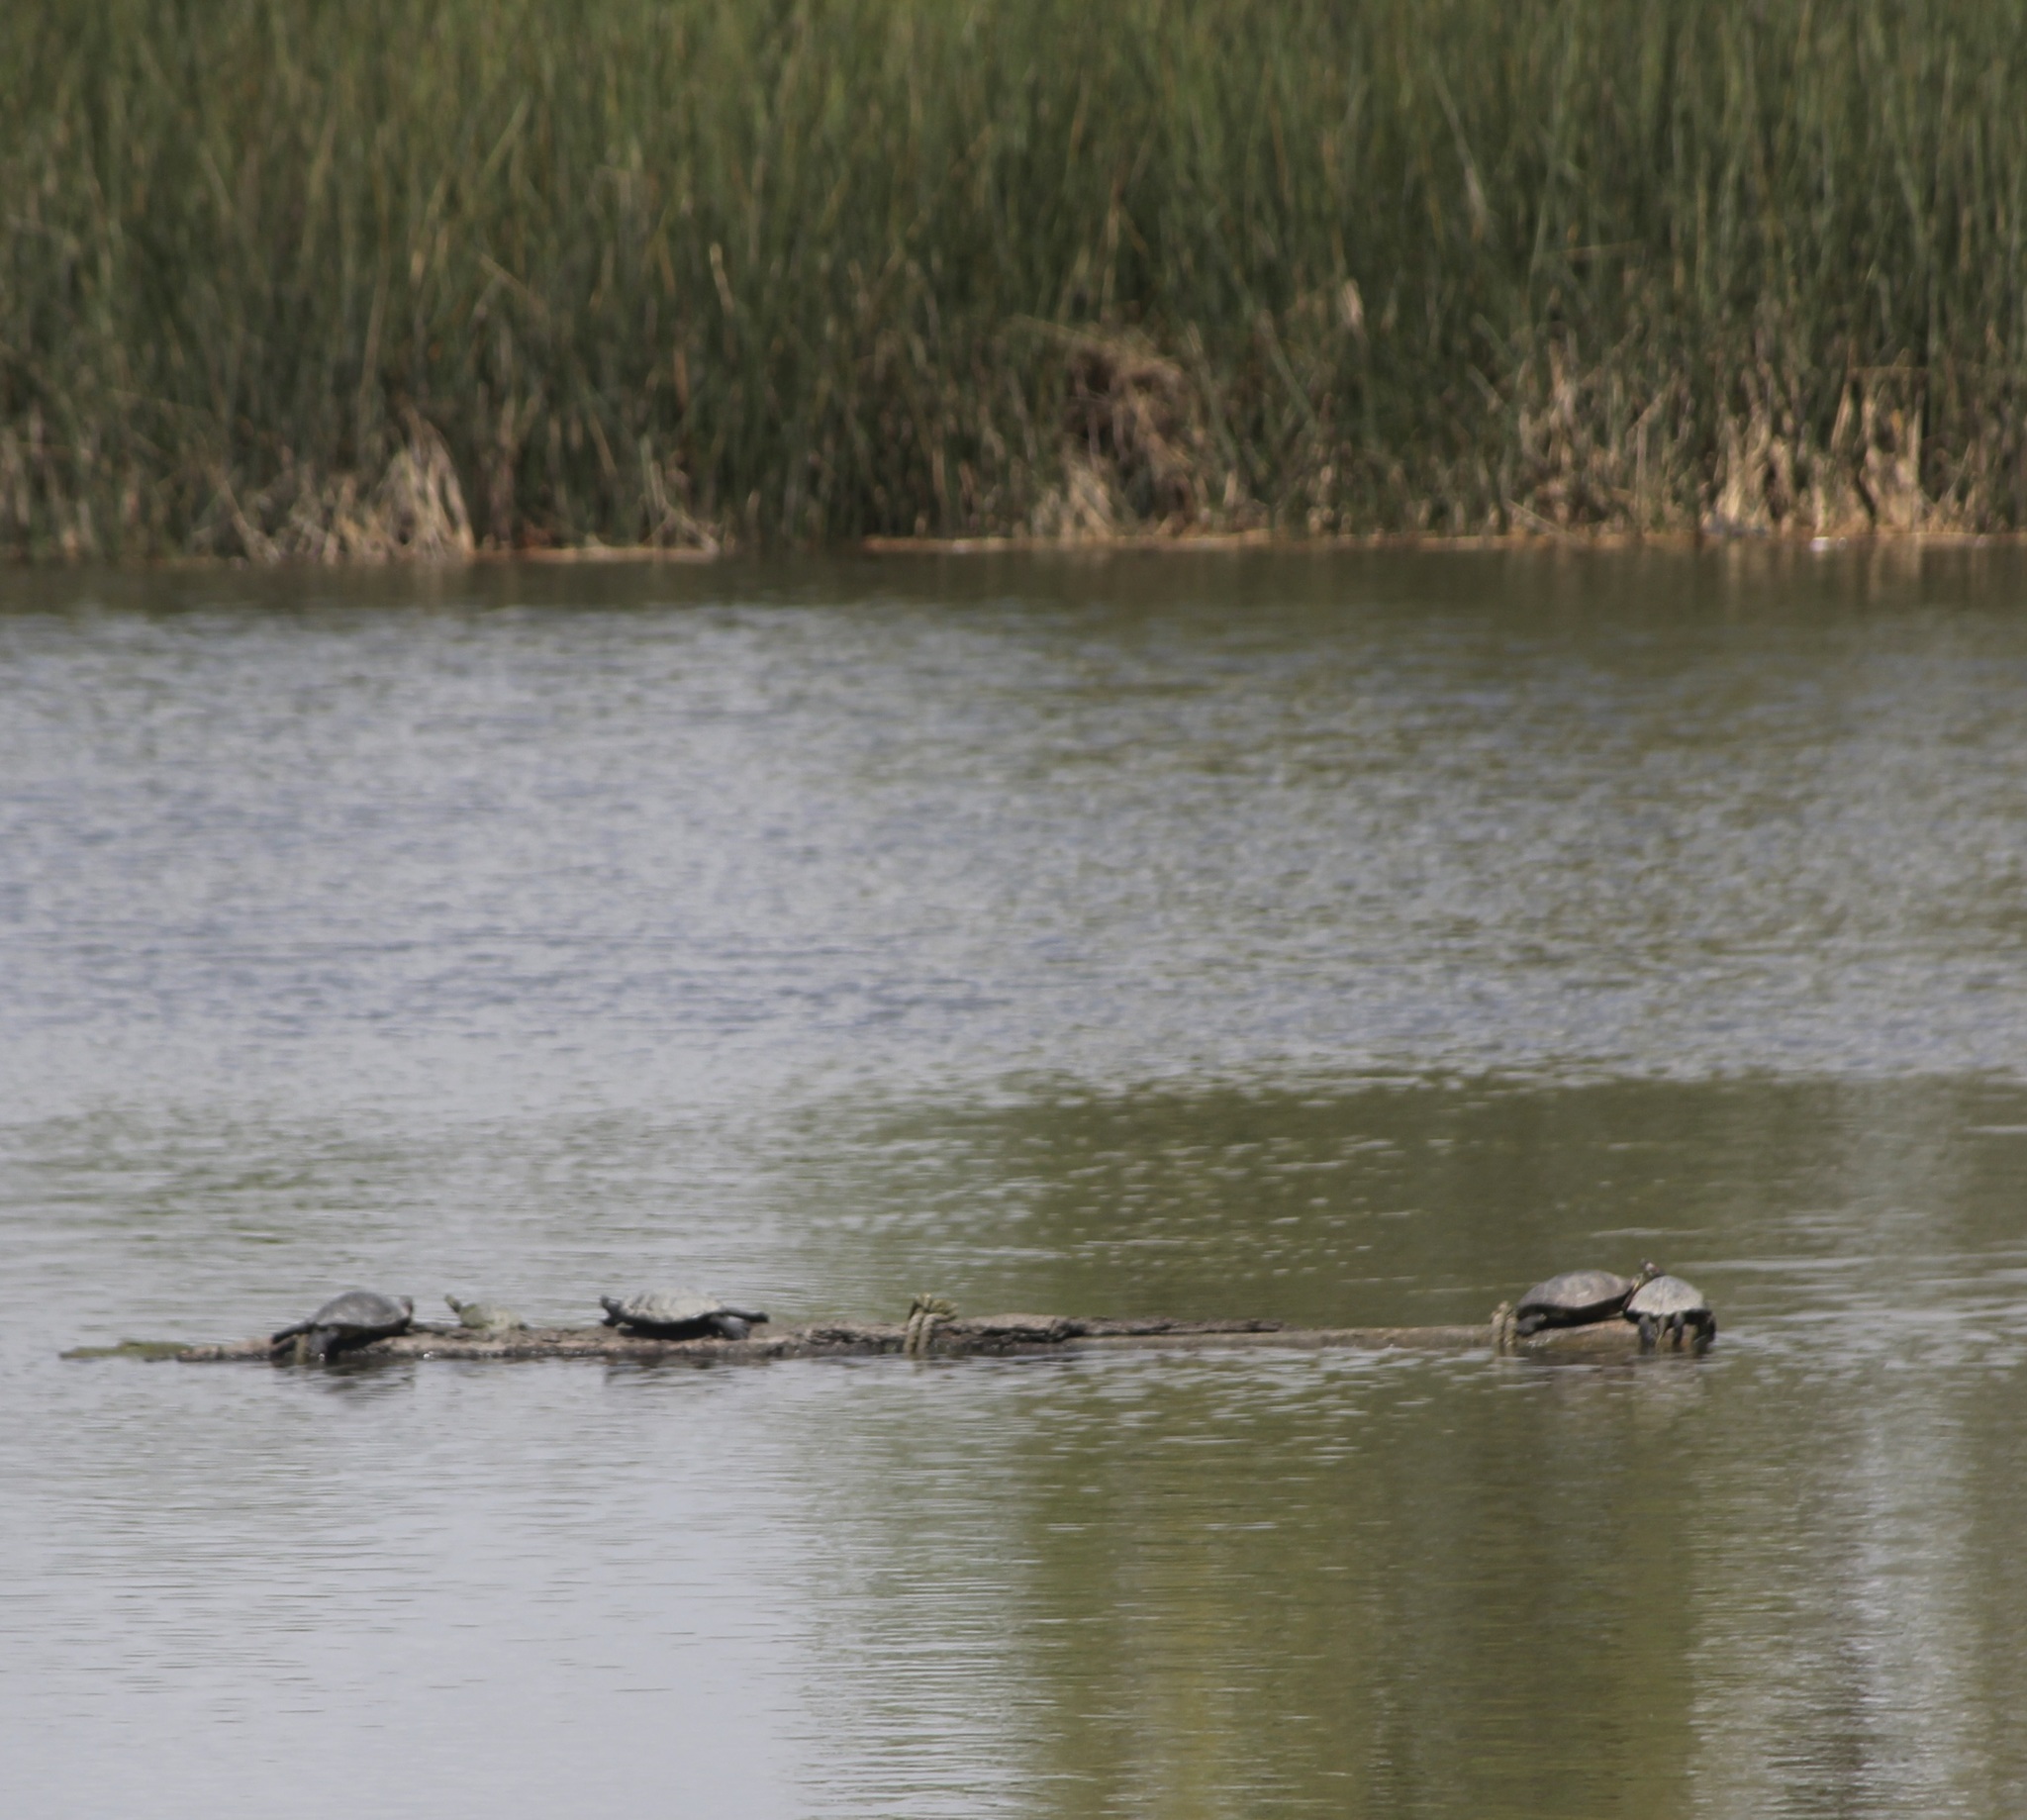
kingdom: Animalia
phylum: Chordata
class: Testudines
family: Emydidae
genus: Trachemys
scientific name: Trachemys scripta
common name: Slider
